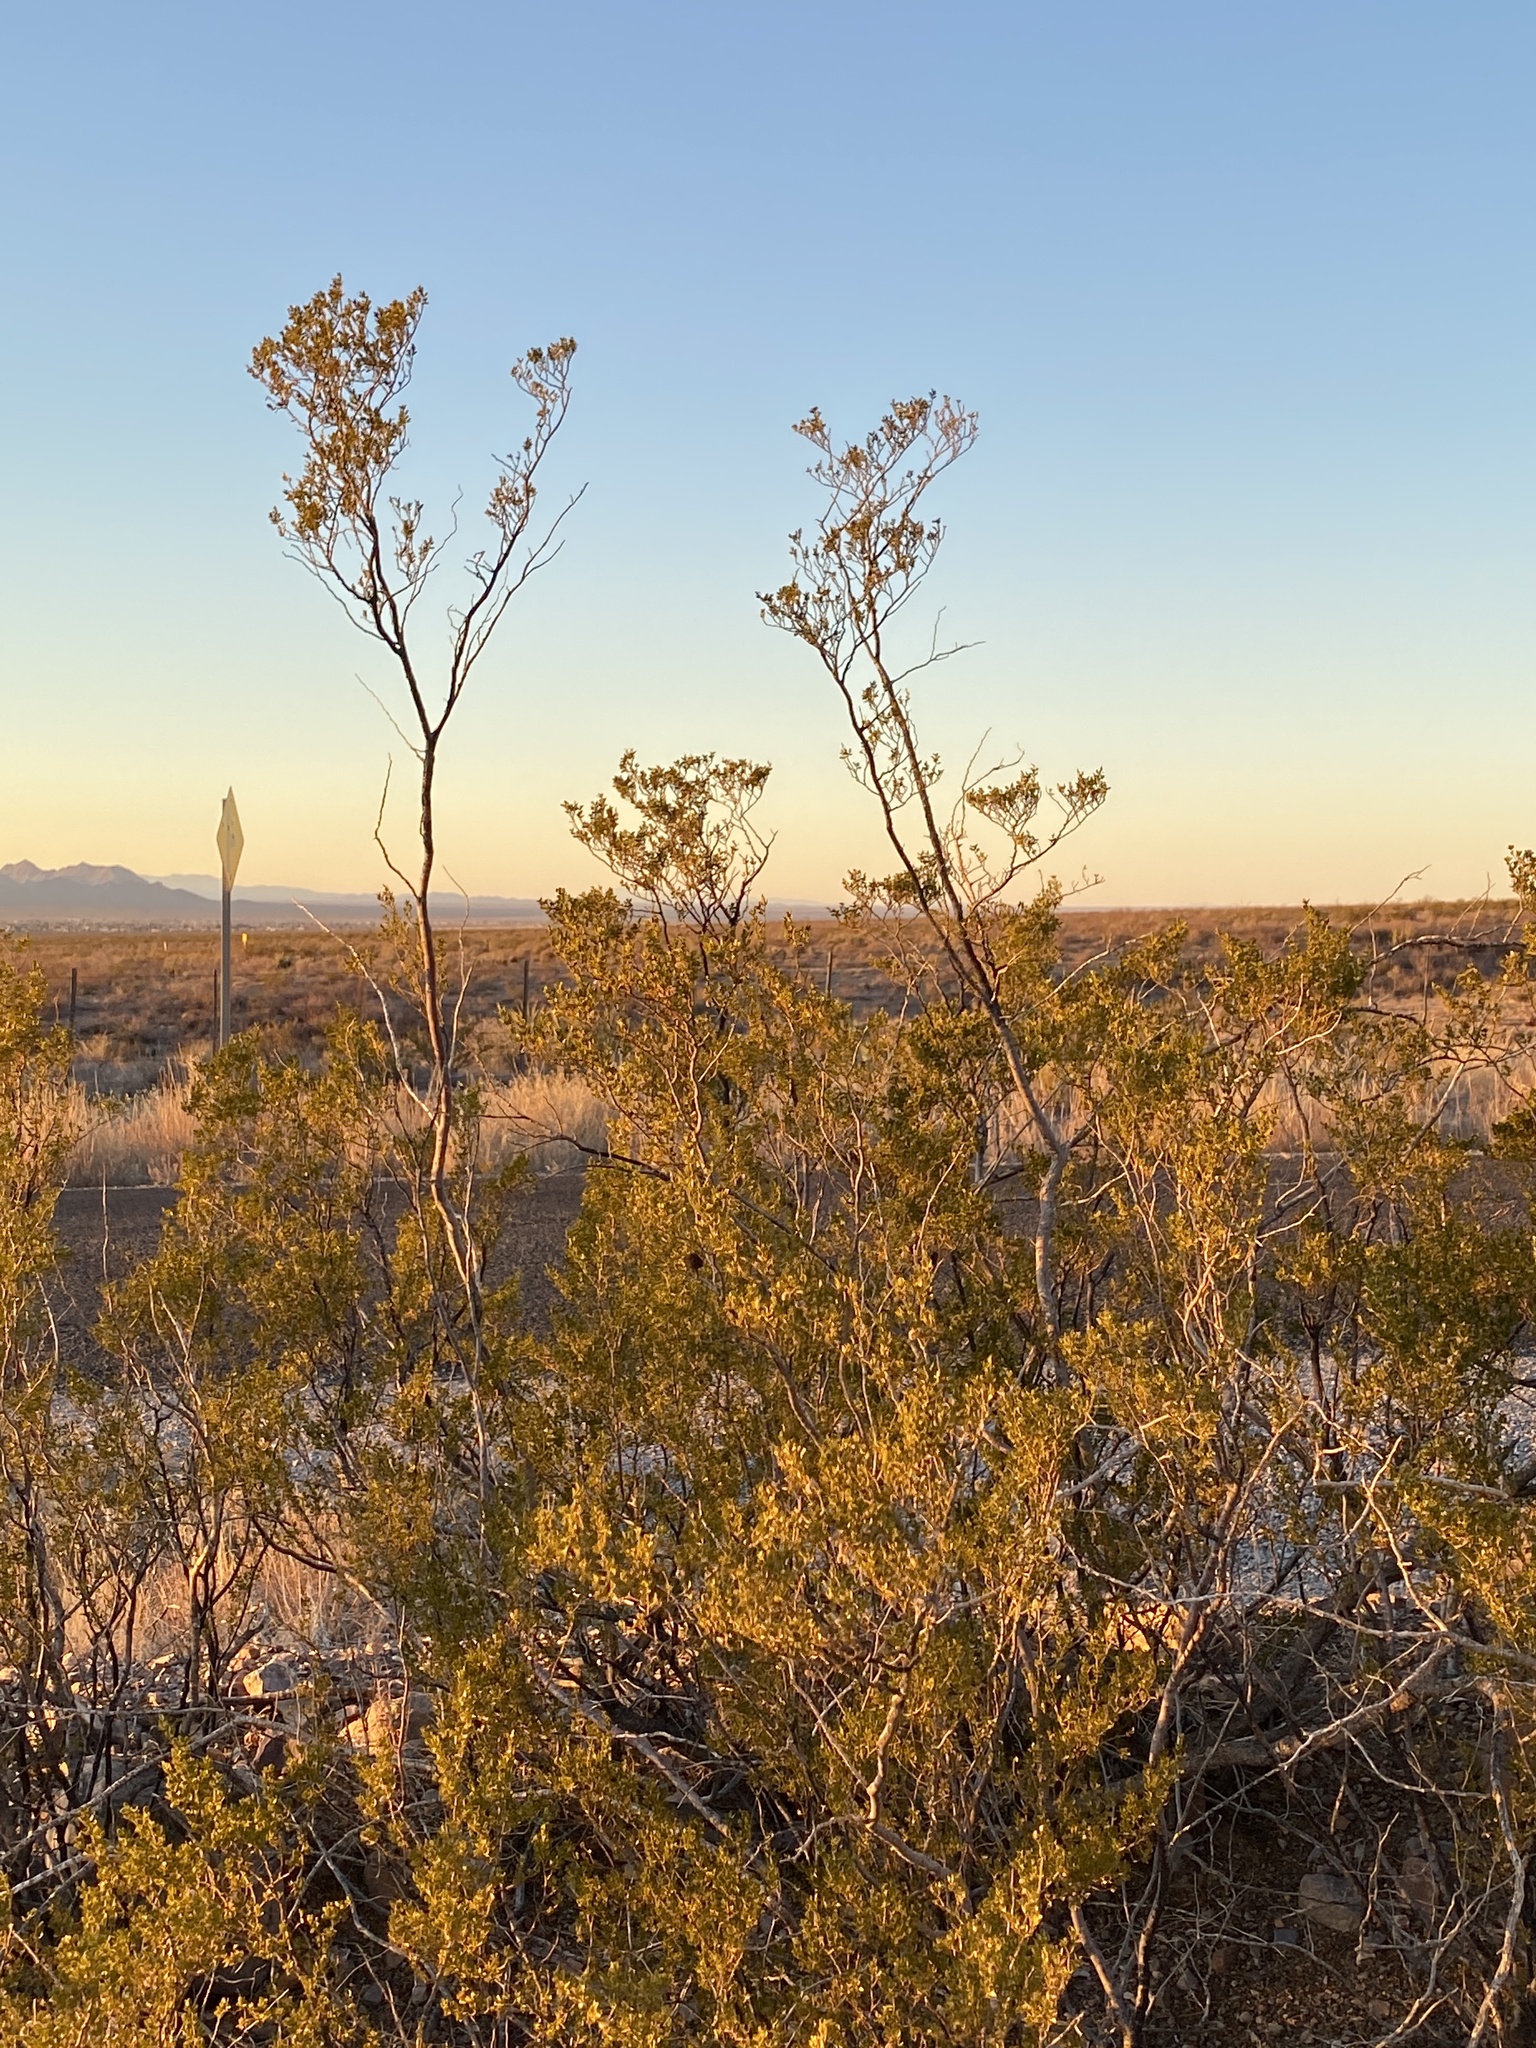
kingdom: Plantae
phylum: Tracheophyta
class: Magnoliopsida
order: Zygophyllales
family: Zygophyllaceae
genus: Larrea
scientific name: Larrea tridentata
